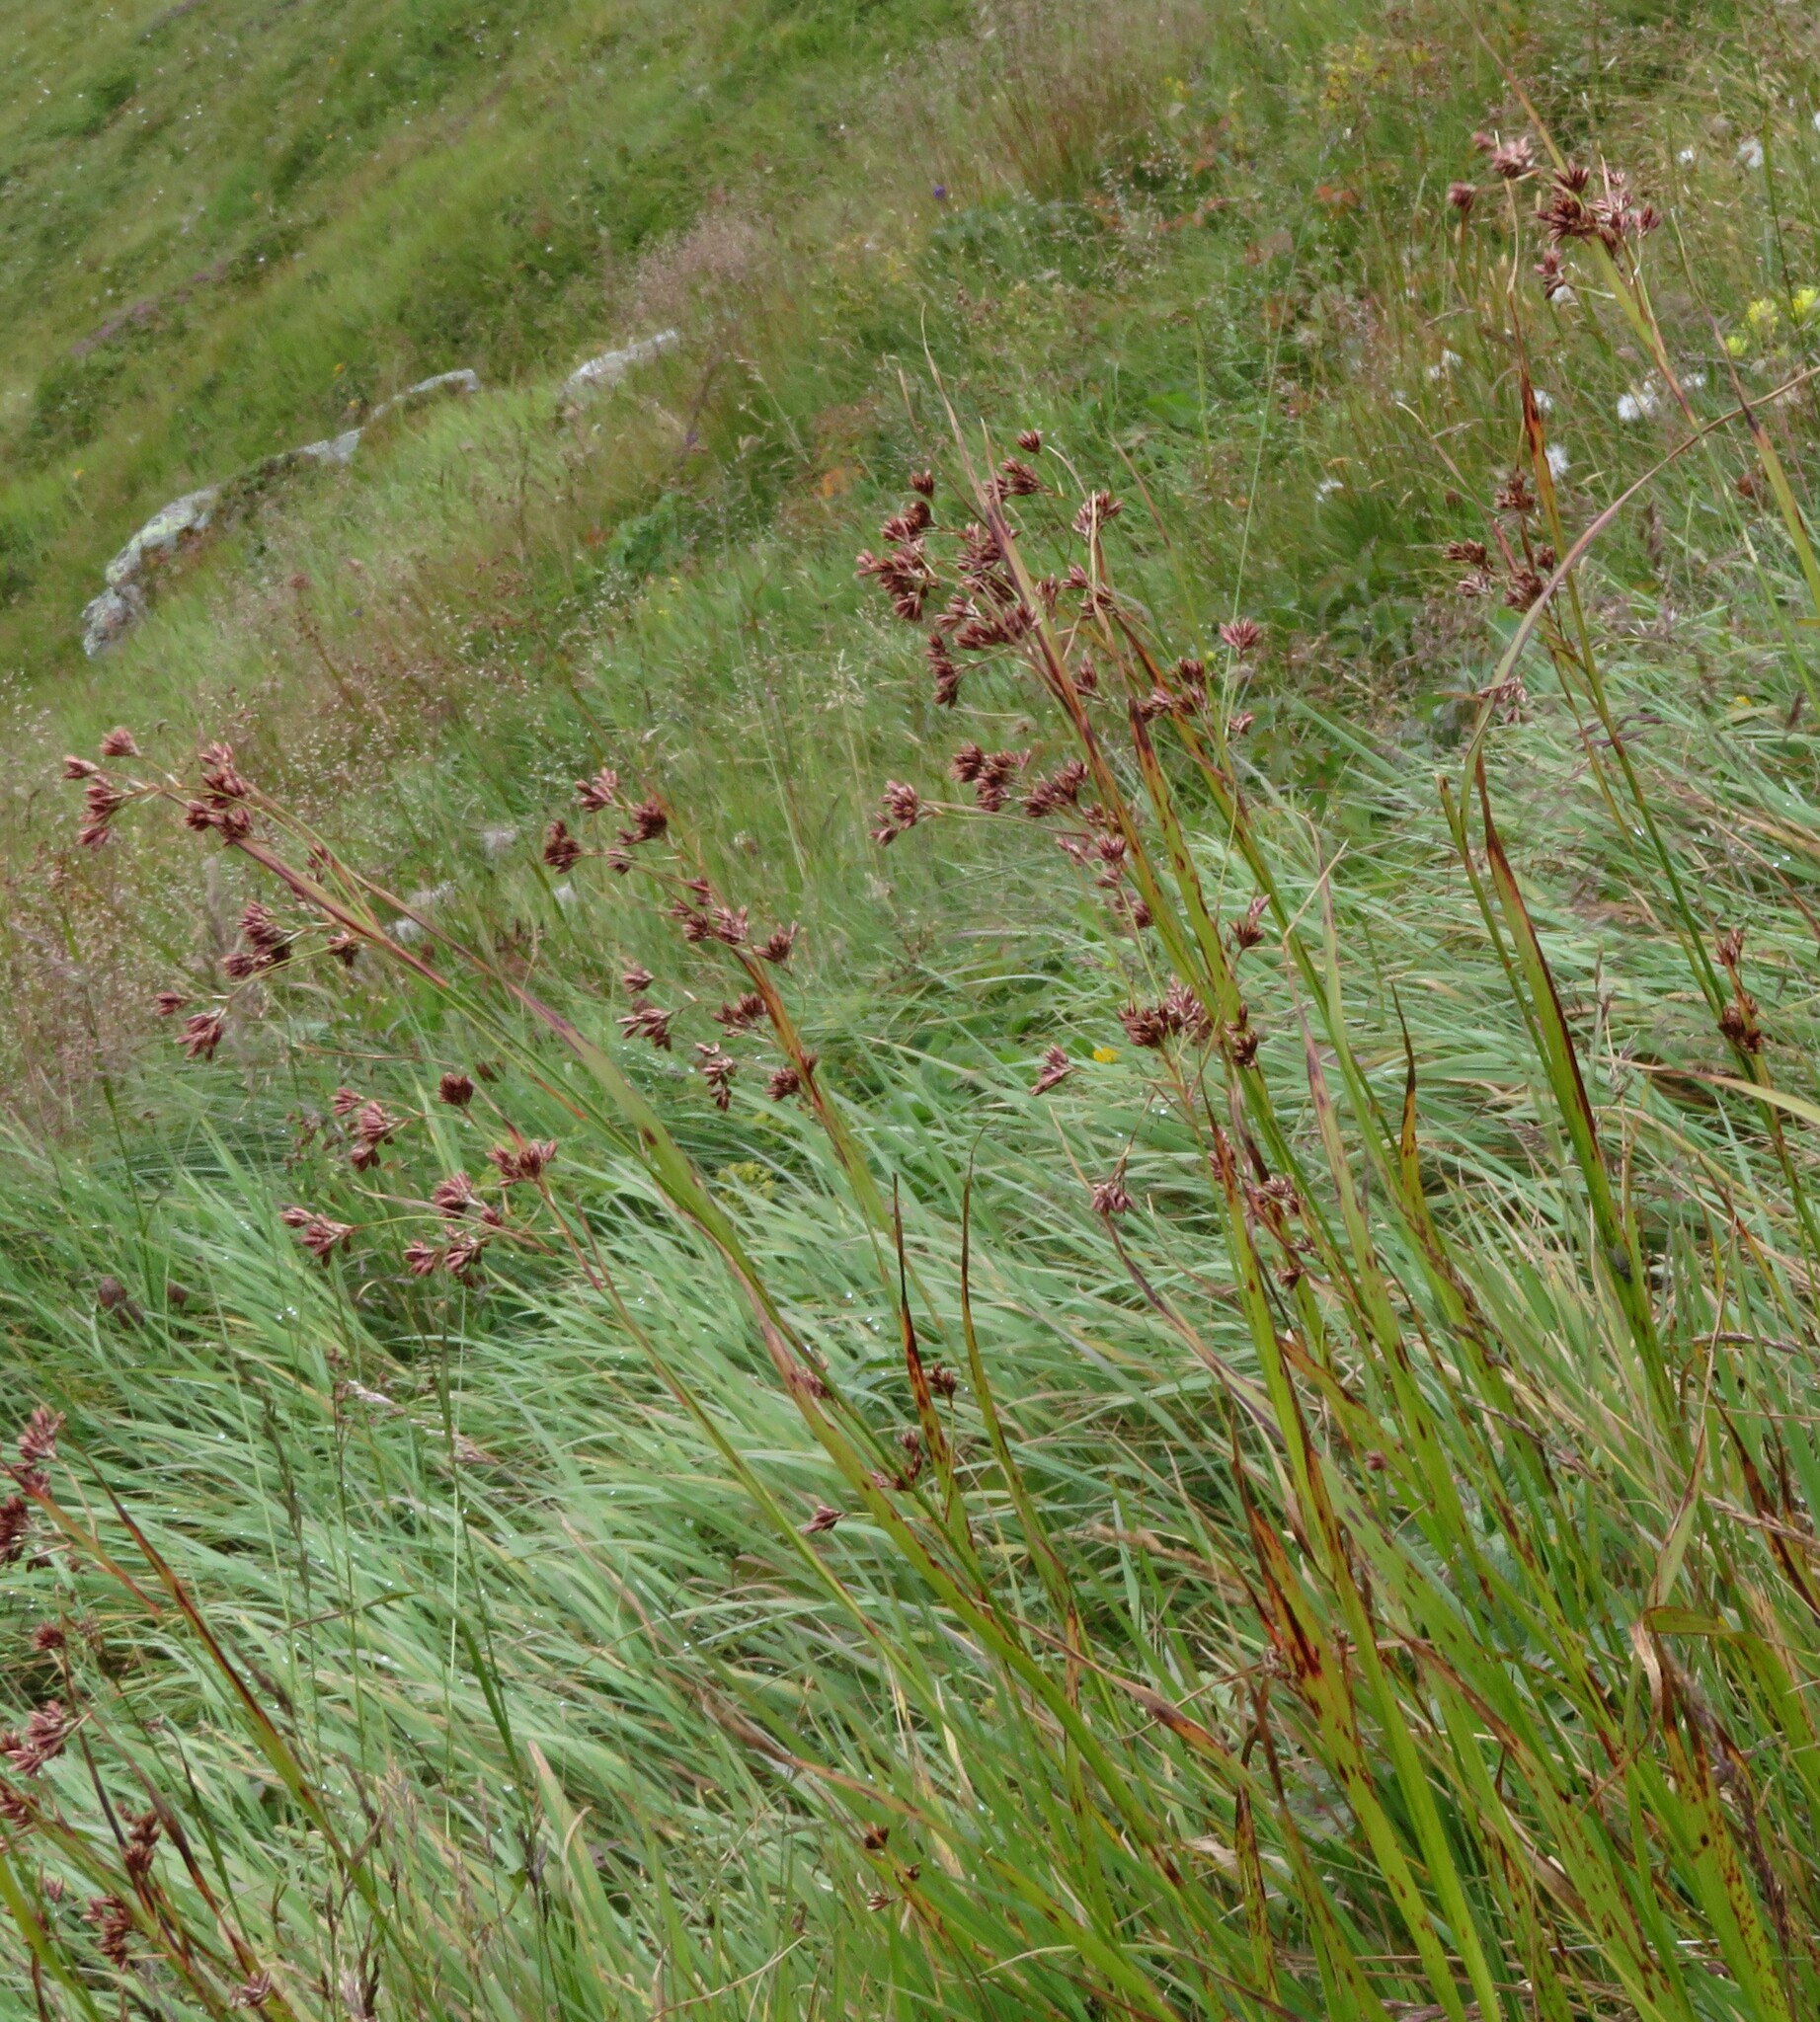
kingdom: Plantae
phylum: Tracheophyta
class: Liliopsida
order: Poales
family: Juncaceae
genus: Luzula
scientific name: Luzula luzuloides
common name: White wood-rush
